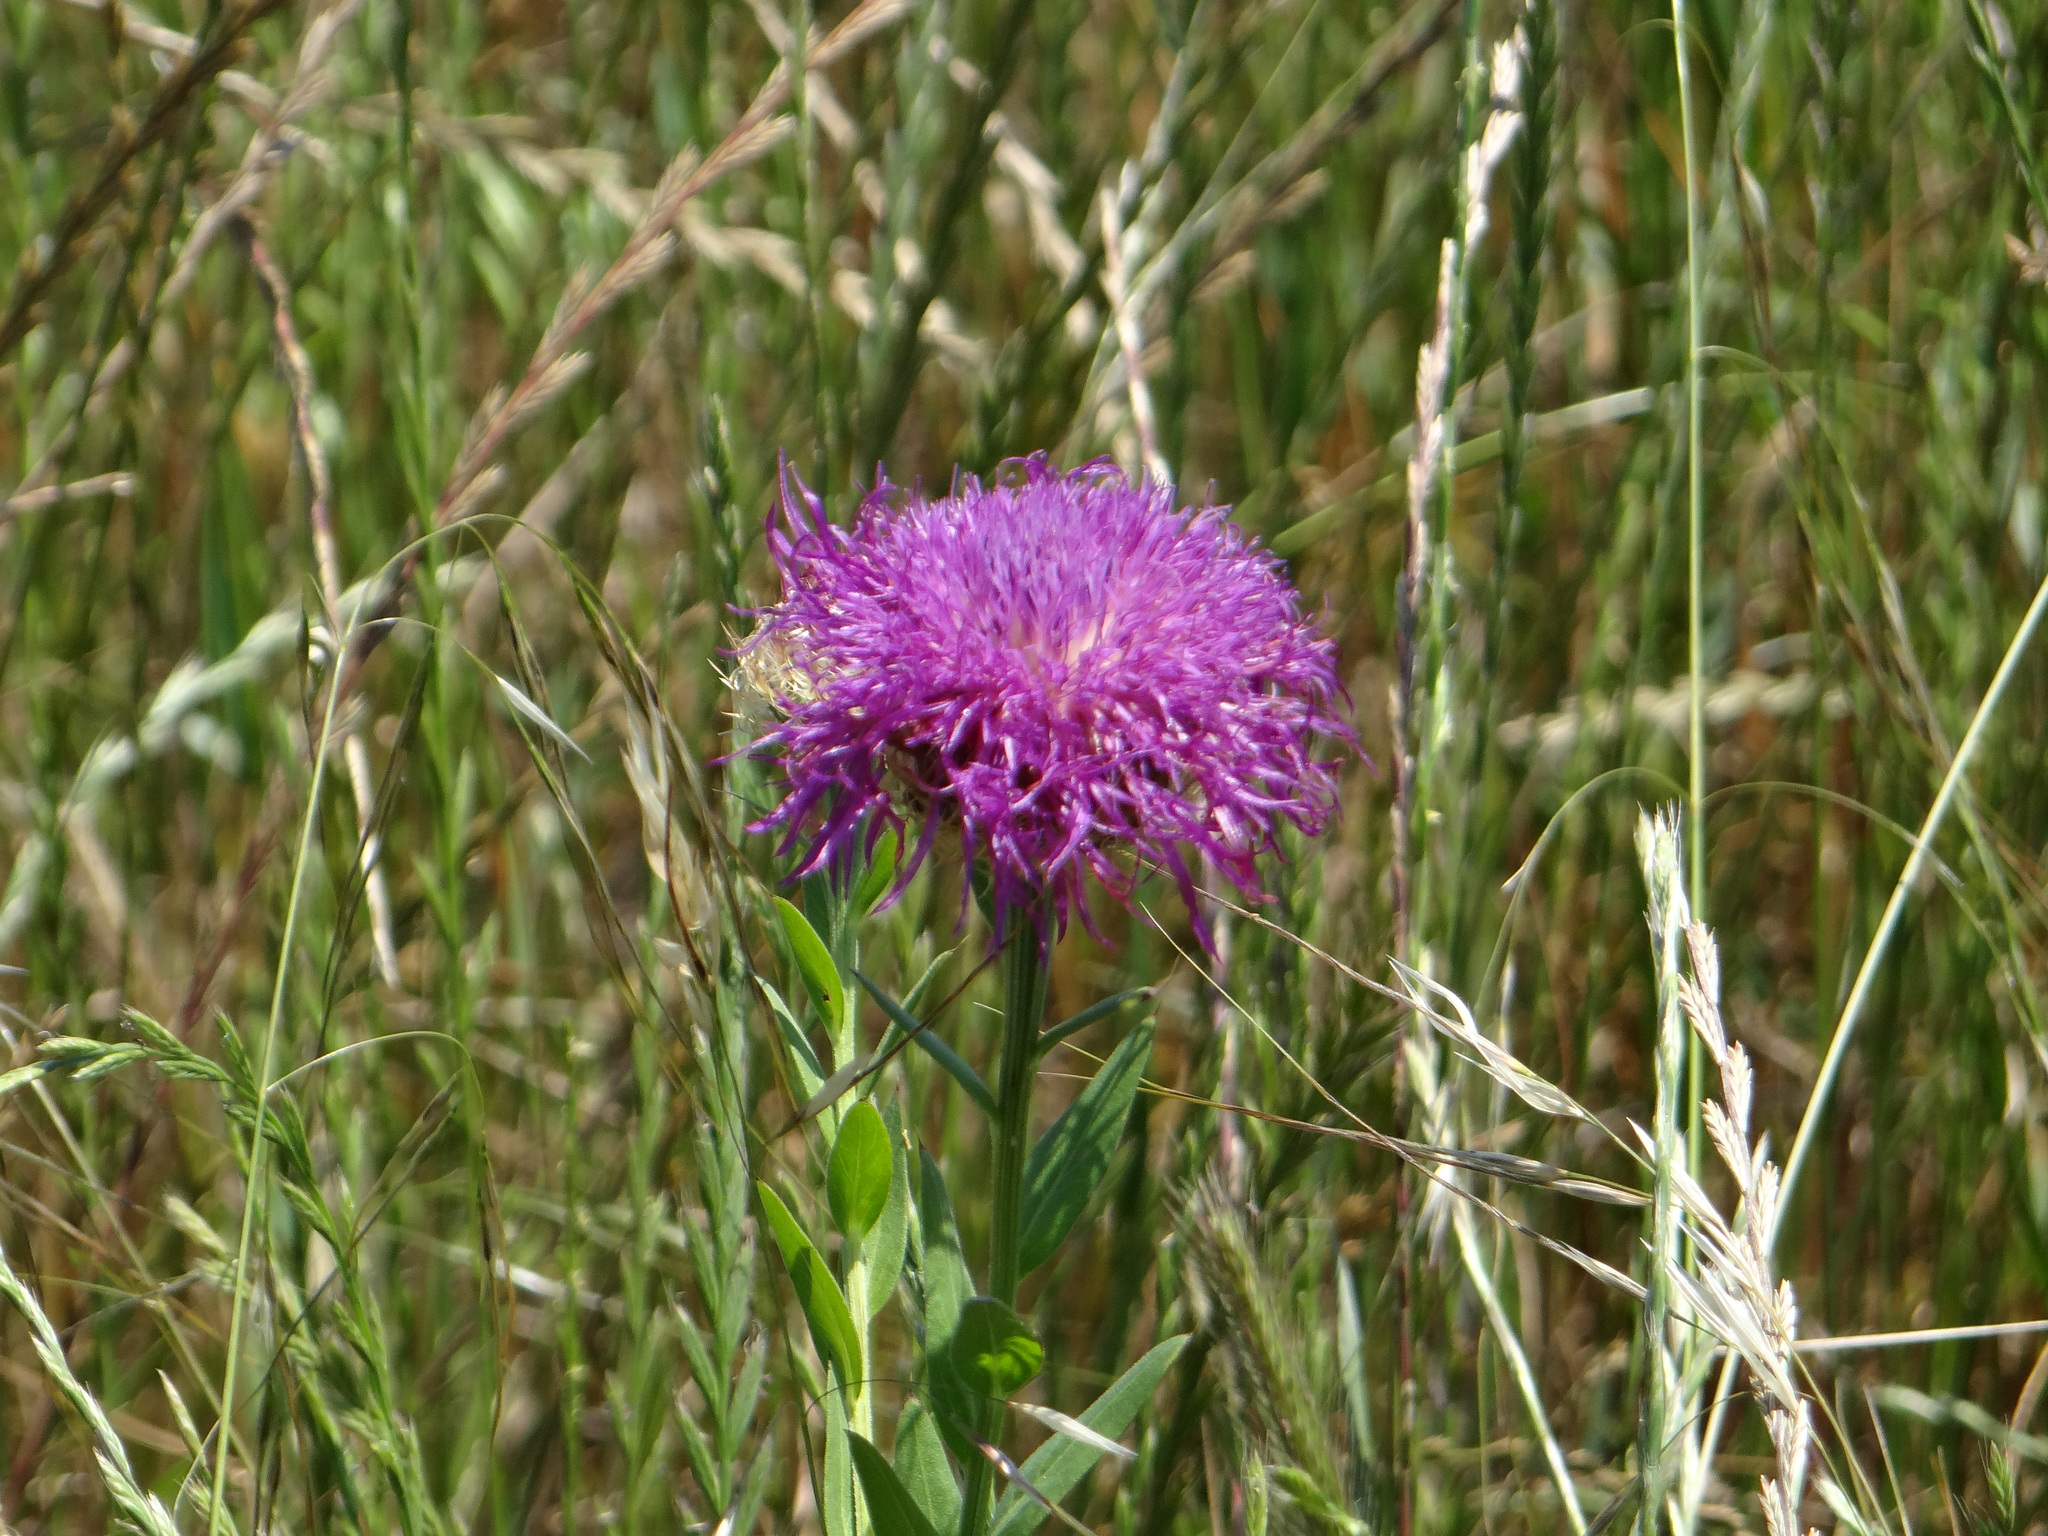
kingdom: Plantae
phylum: Tracheophyta
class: Magnoliopsida
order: Asterales
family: Asteraceae
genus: Plectocephalus
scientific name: Plectocephalus americanus
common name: American basket-flower
